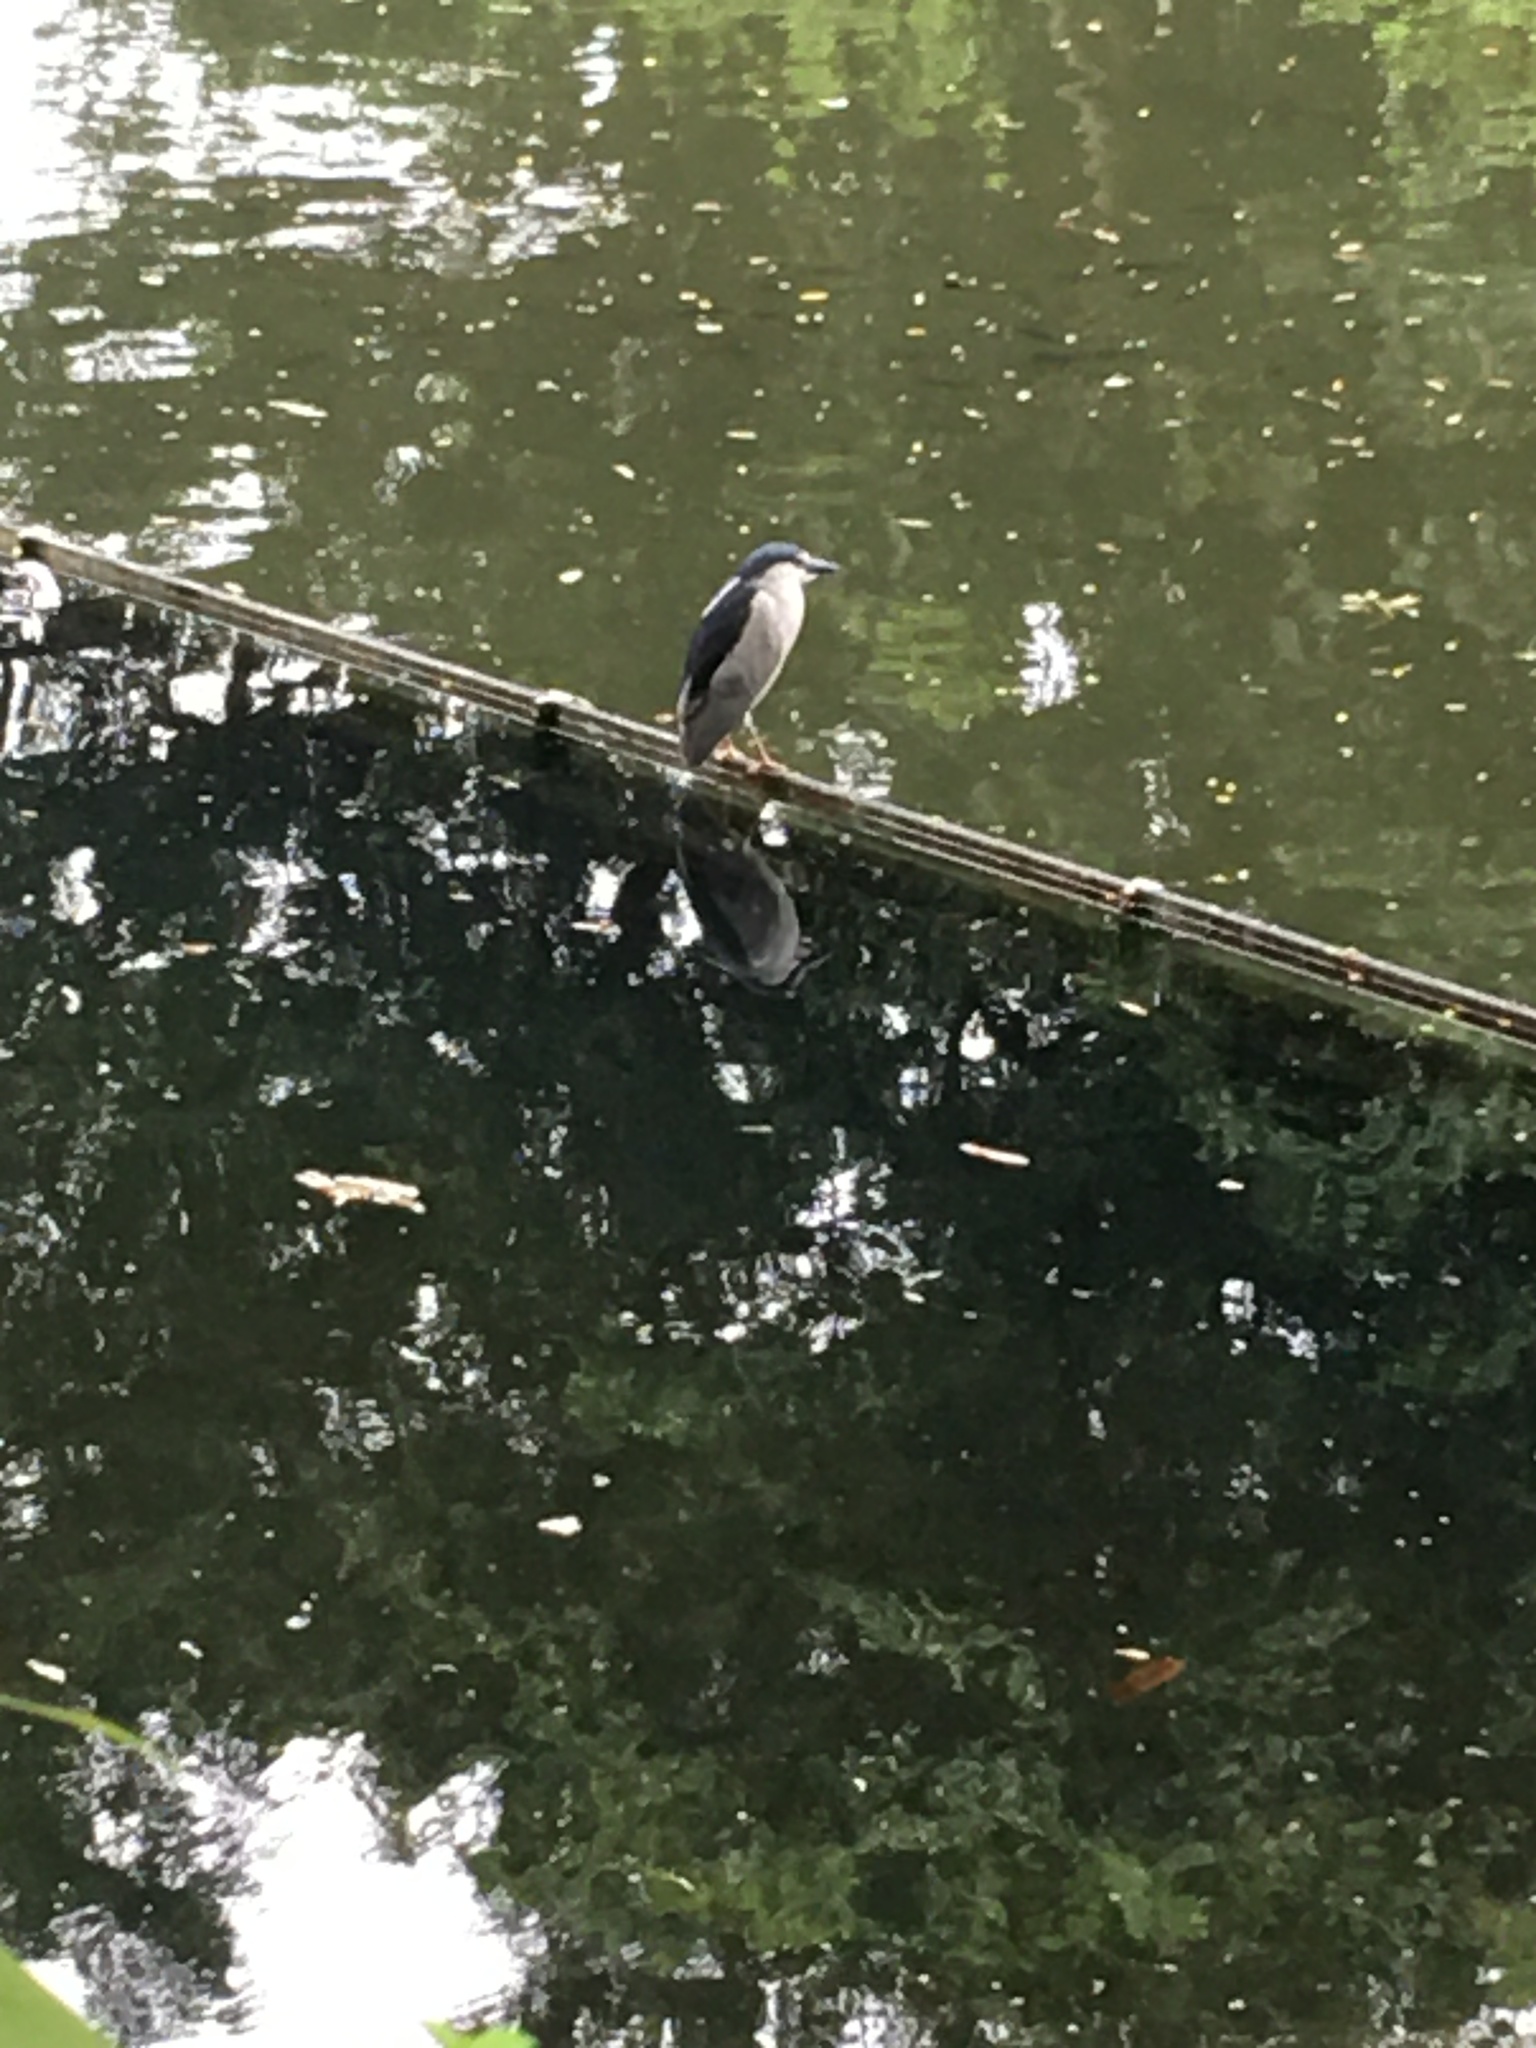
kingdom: Animalia
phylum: Chordata
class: Aves
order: Pelecaniformes
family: Ardeidae
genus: Nycticorax
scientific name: Nycticorax nycticorax
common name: Black-crowned night heron
